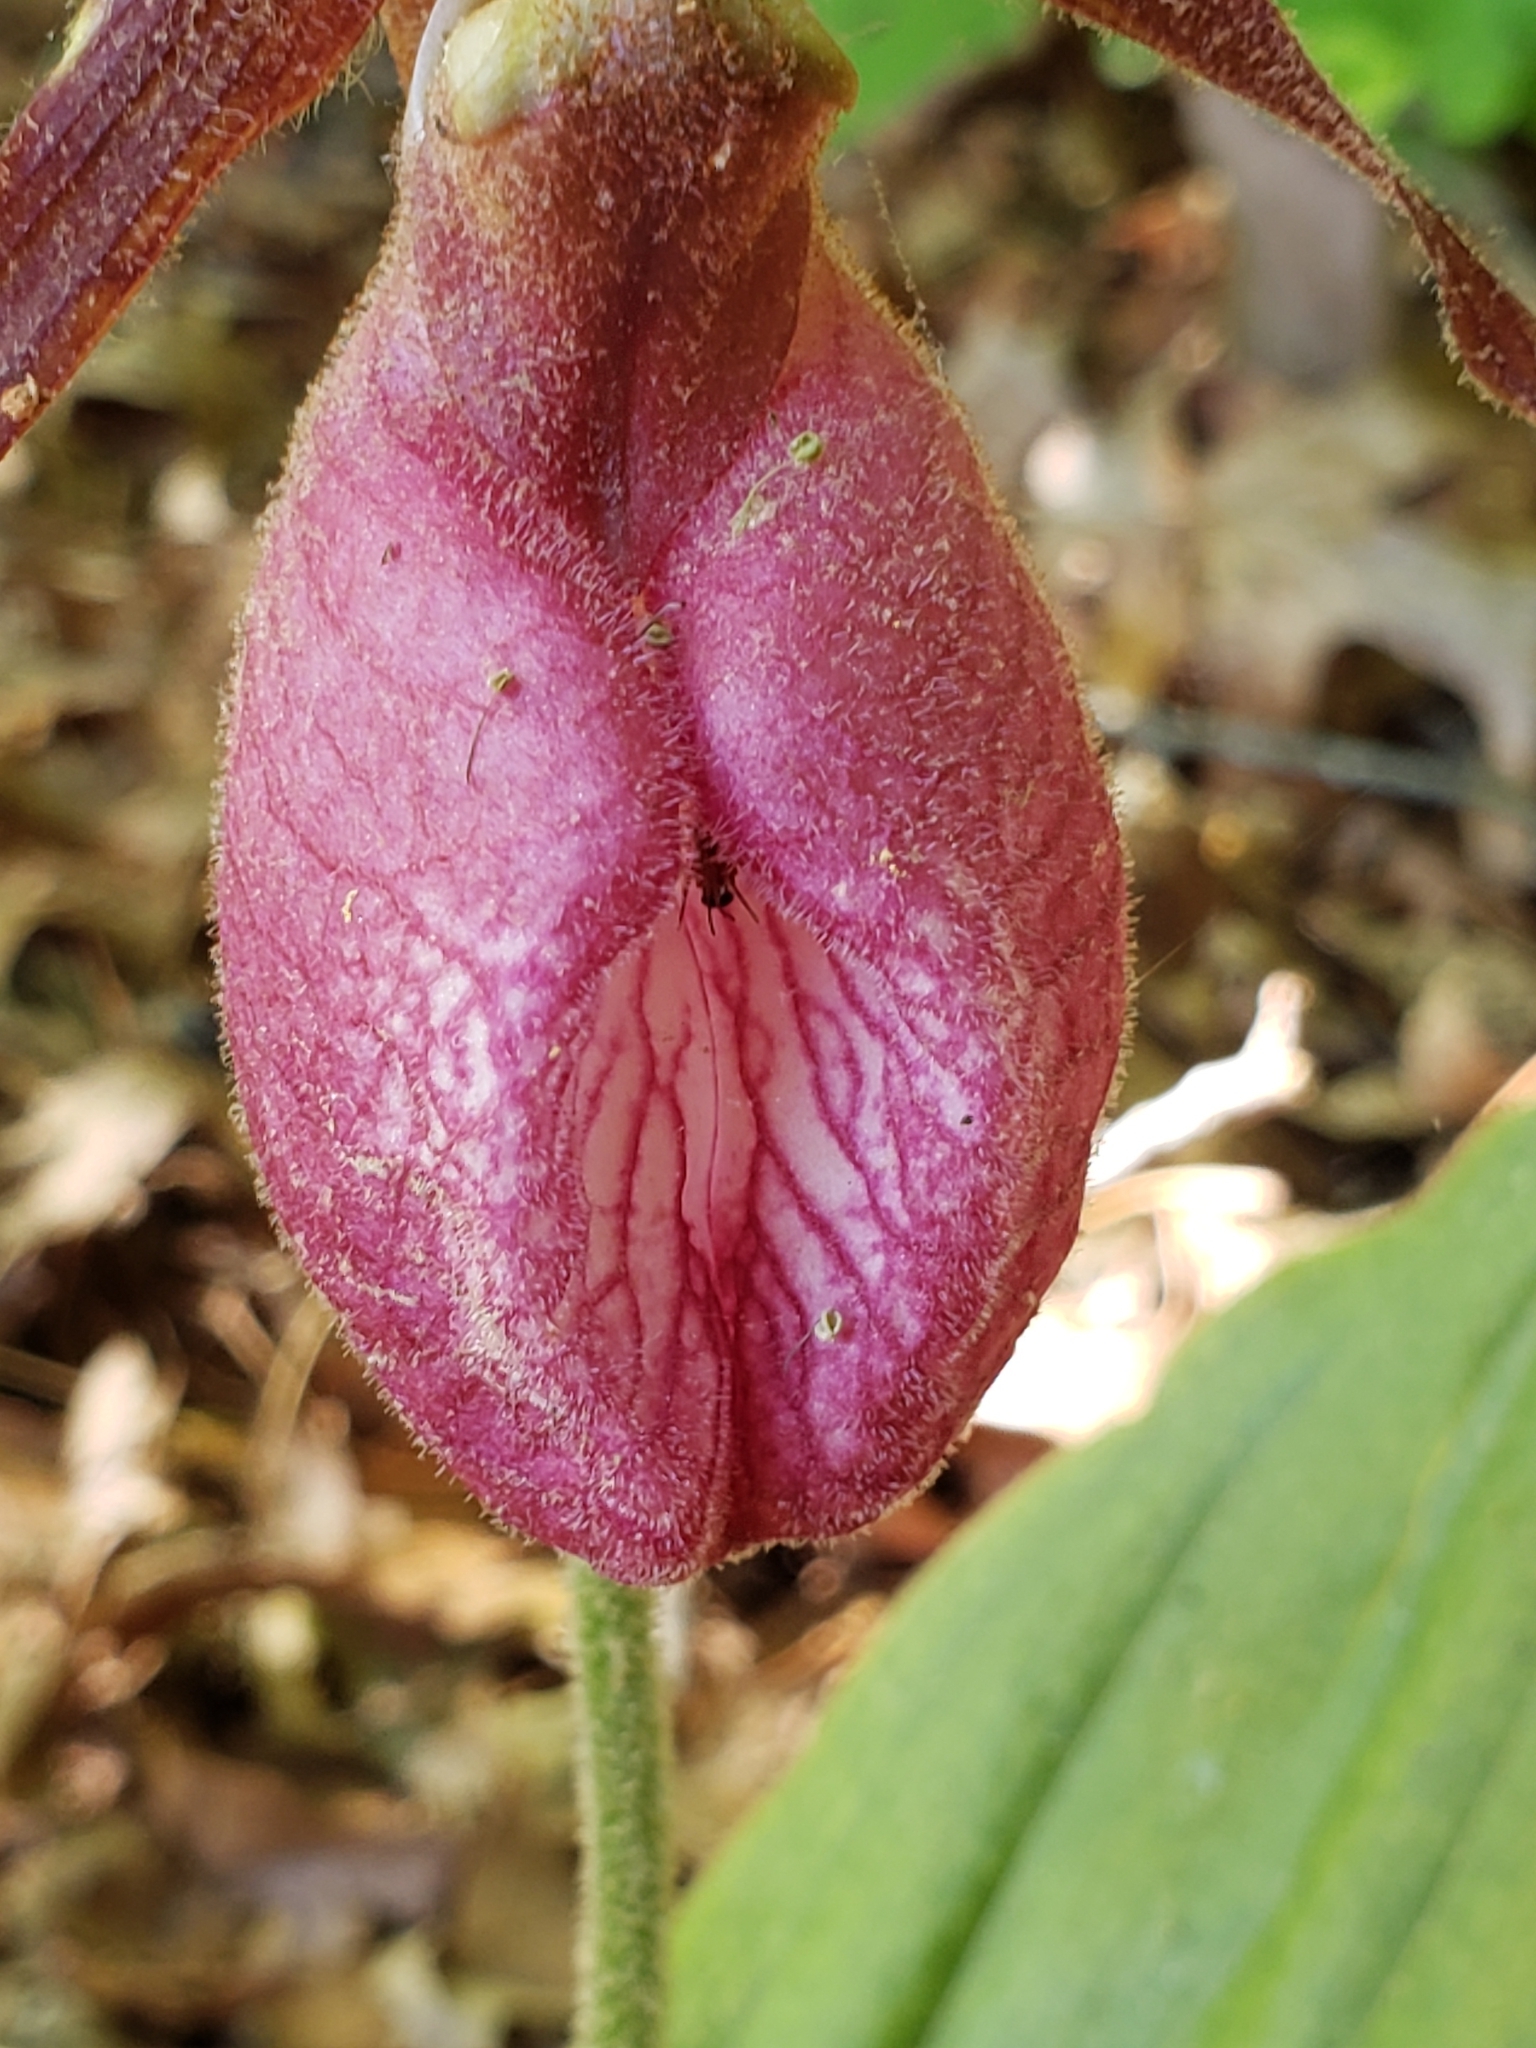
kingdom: Plantae
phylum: Tracheophyta
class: Liliopsida
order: Asparagales
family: Orchidaceae
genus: Cypripedium
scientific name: Cypripedium acaule
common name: Pink lady's-slipper
